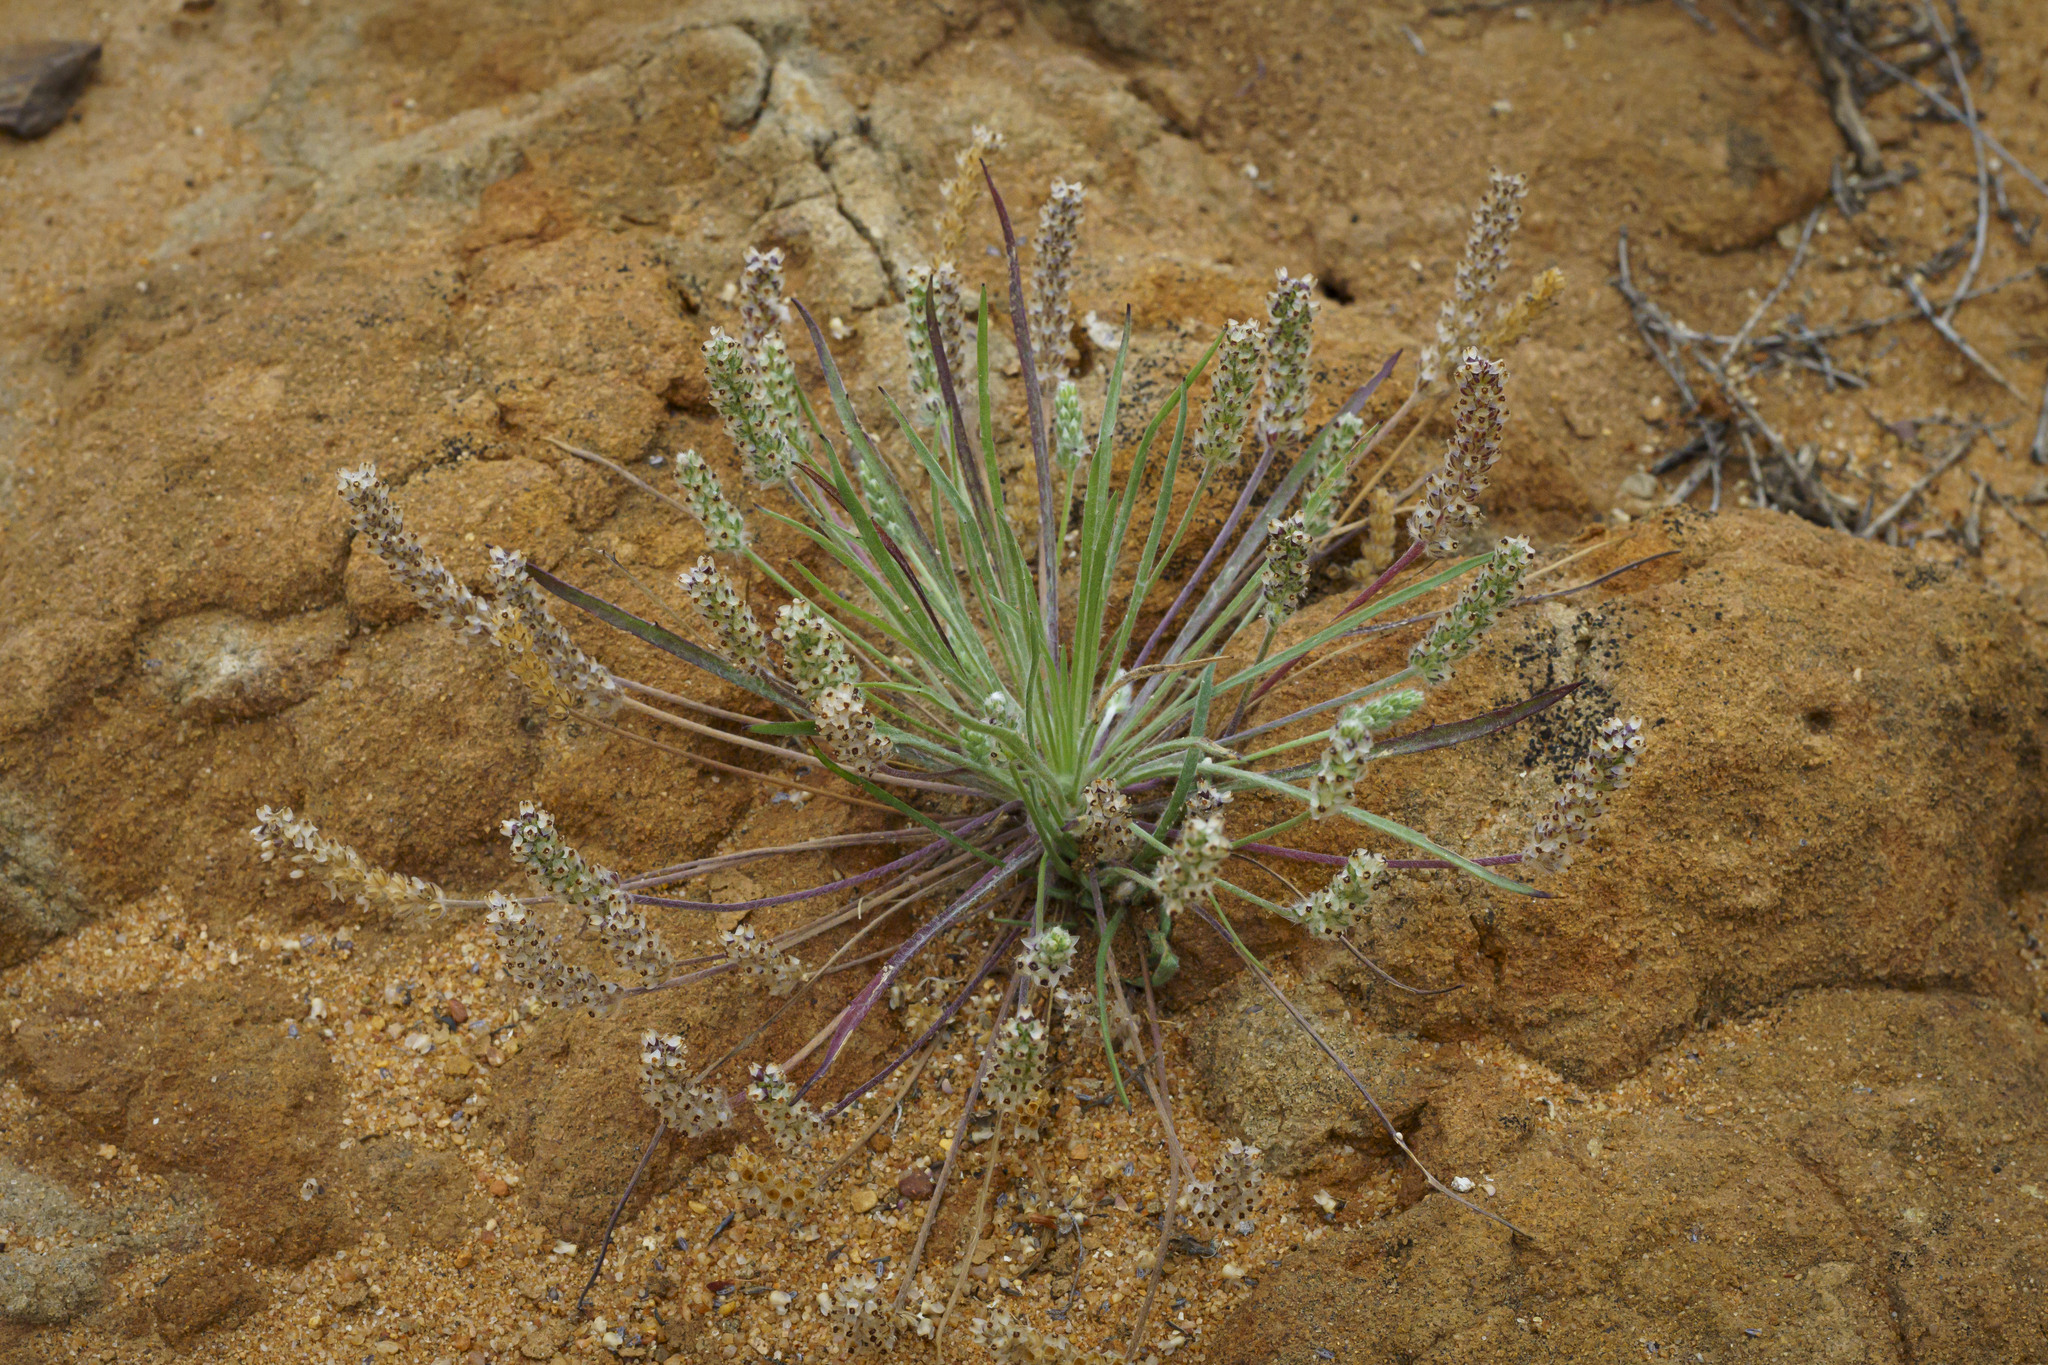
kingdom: Plantae
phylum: Tracheophyta
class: Magnoliopsida
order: Lamiales
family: Plantaginaceae
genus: Plantago
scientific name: Plantago erecta
